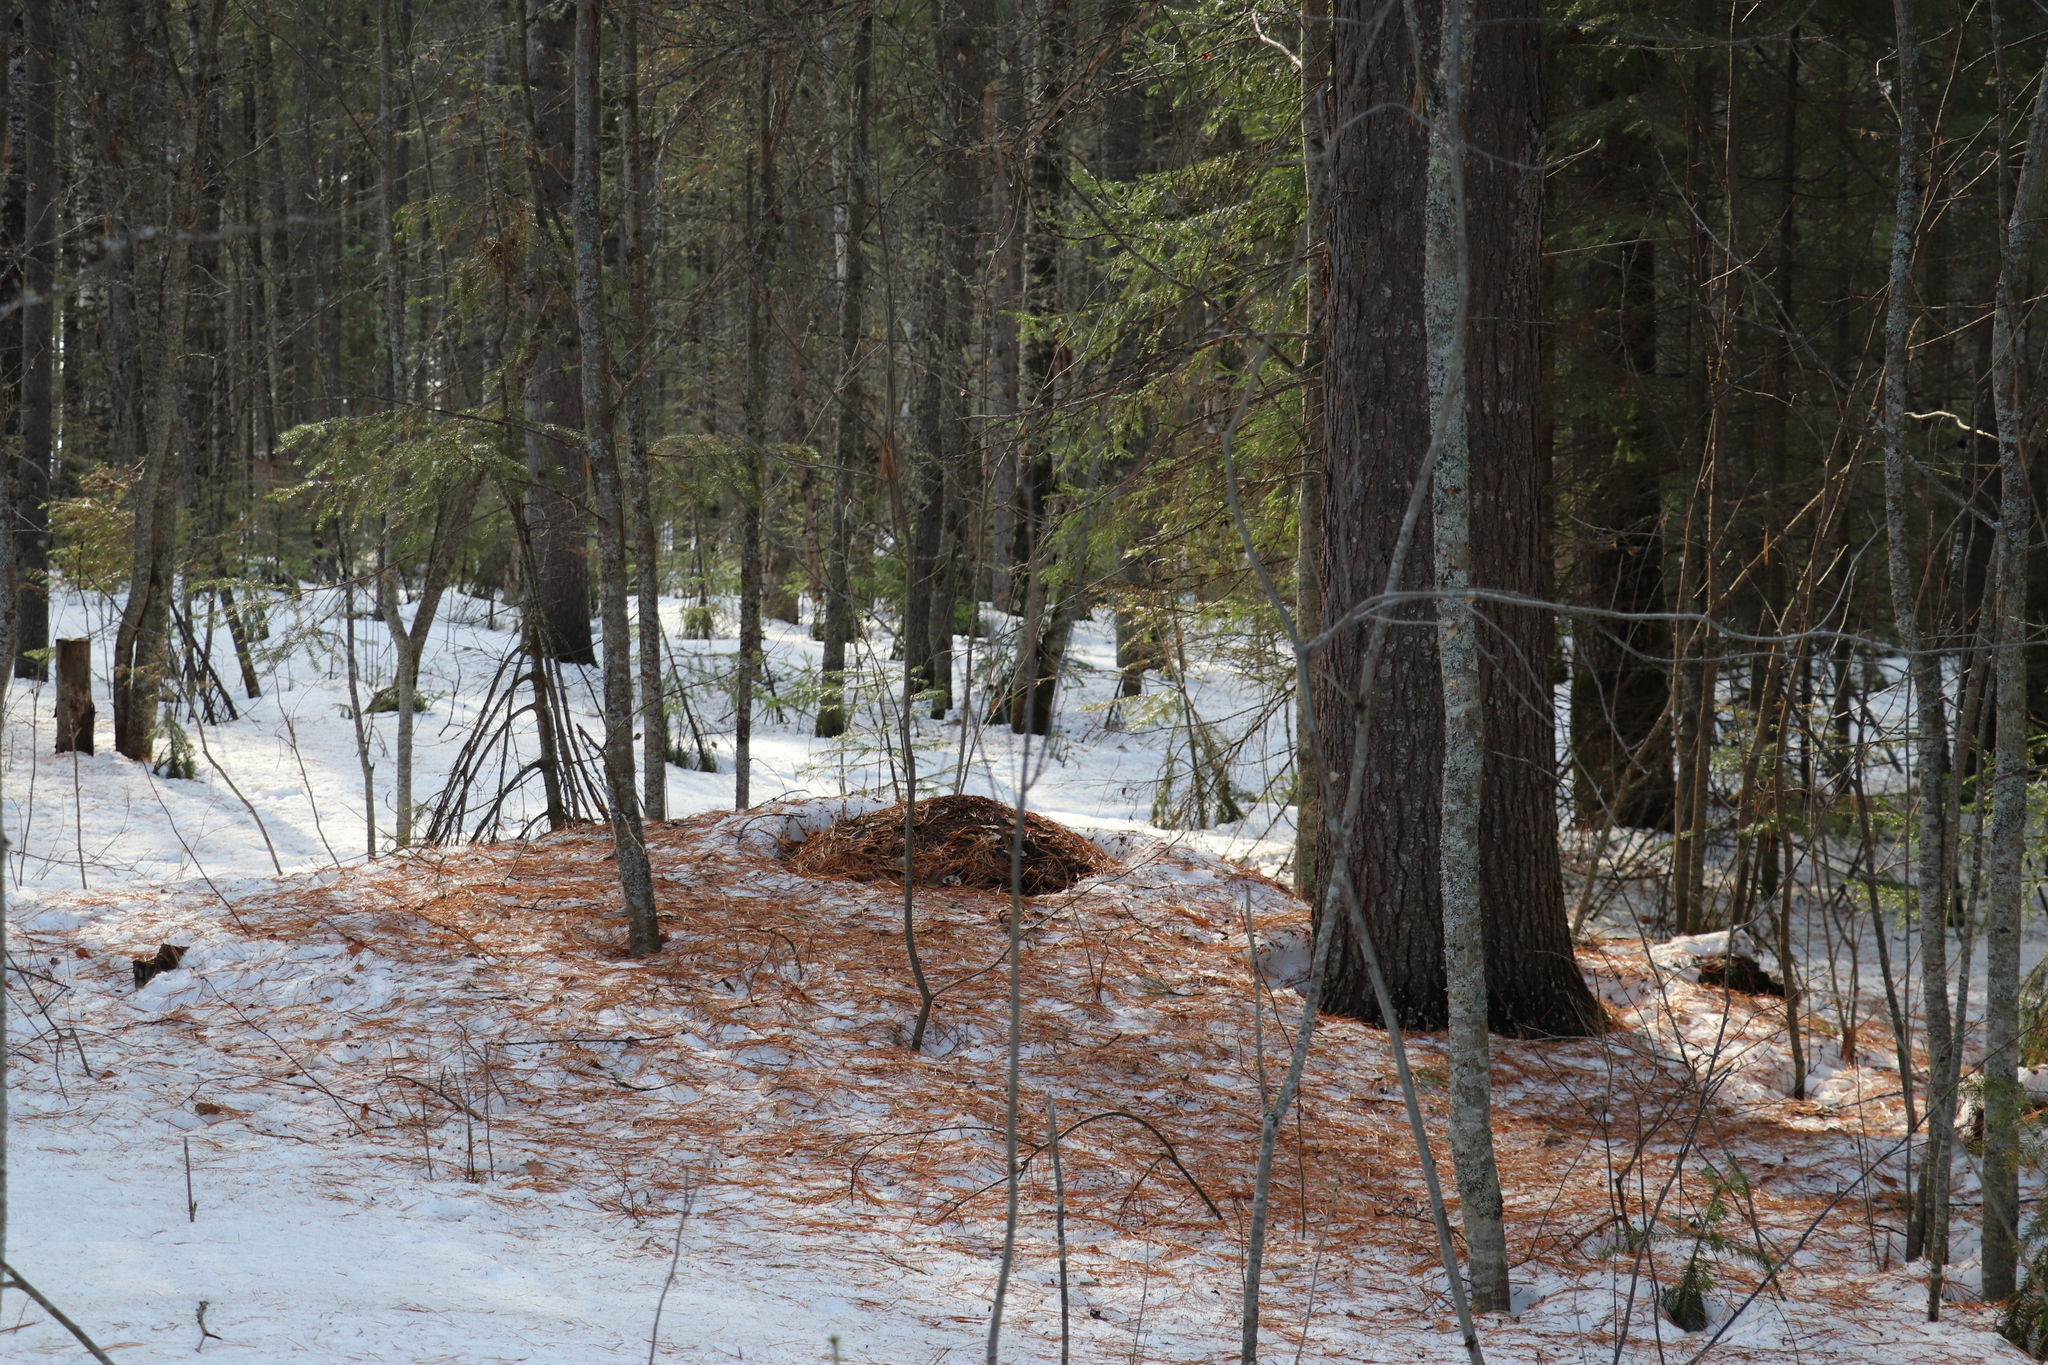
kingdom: Animalia
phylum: Arthropoda
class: Insecta
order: Hymenoptera
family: Formicidae
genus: Formica
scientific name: Formica rufa
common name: Red wood ant
